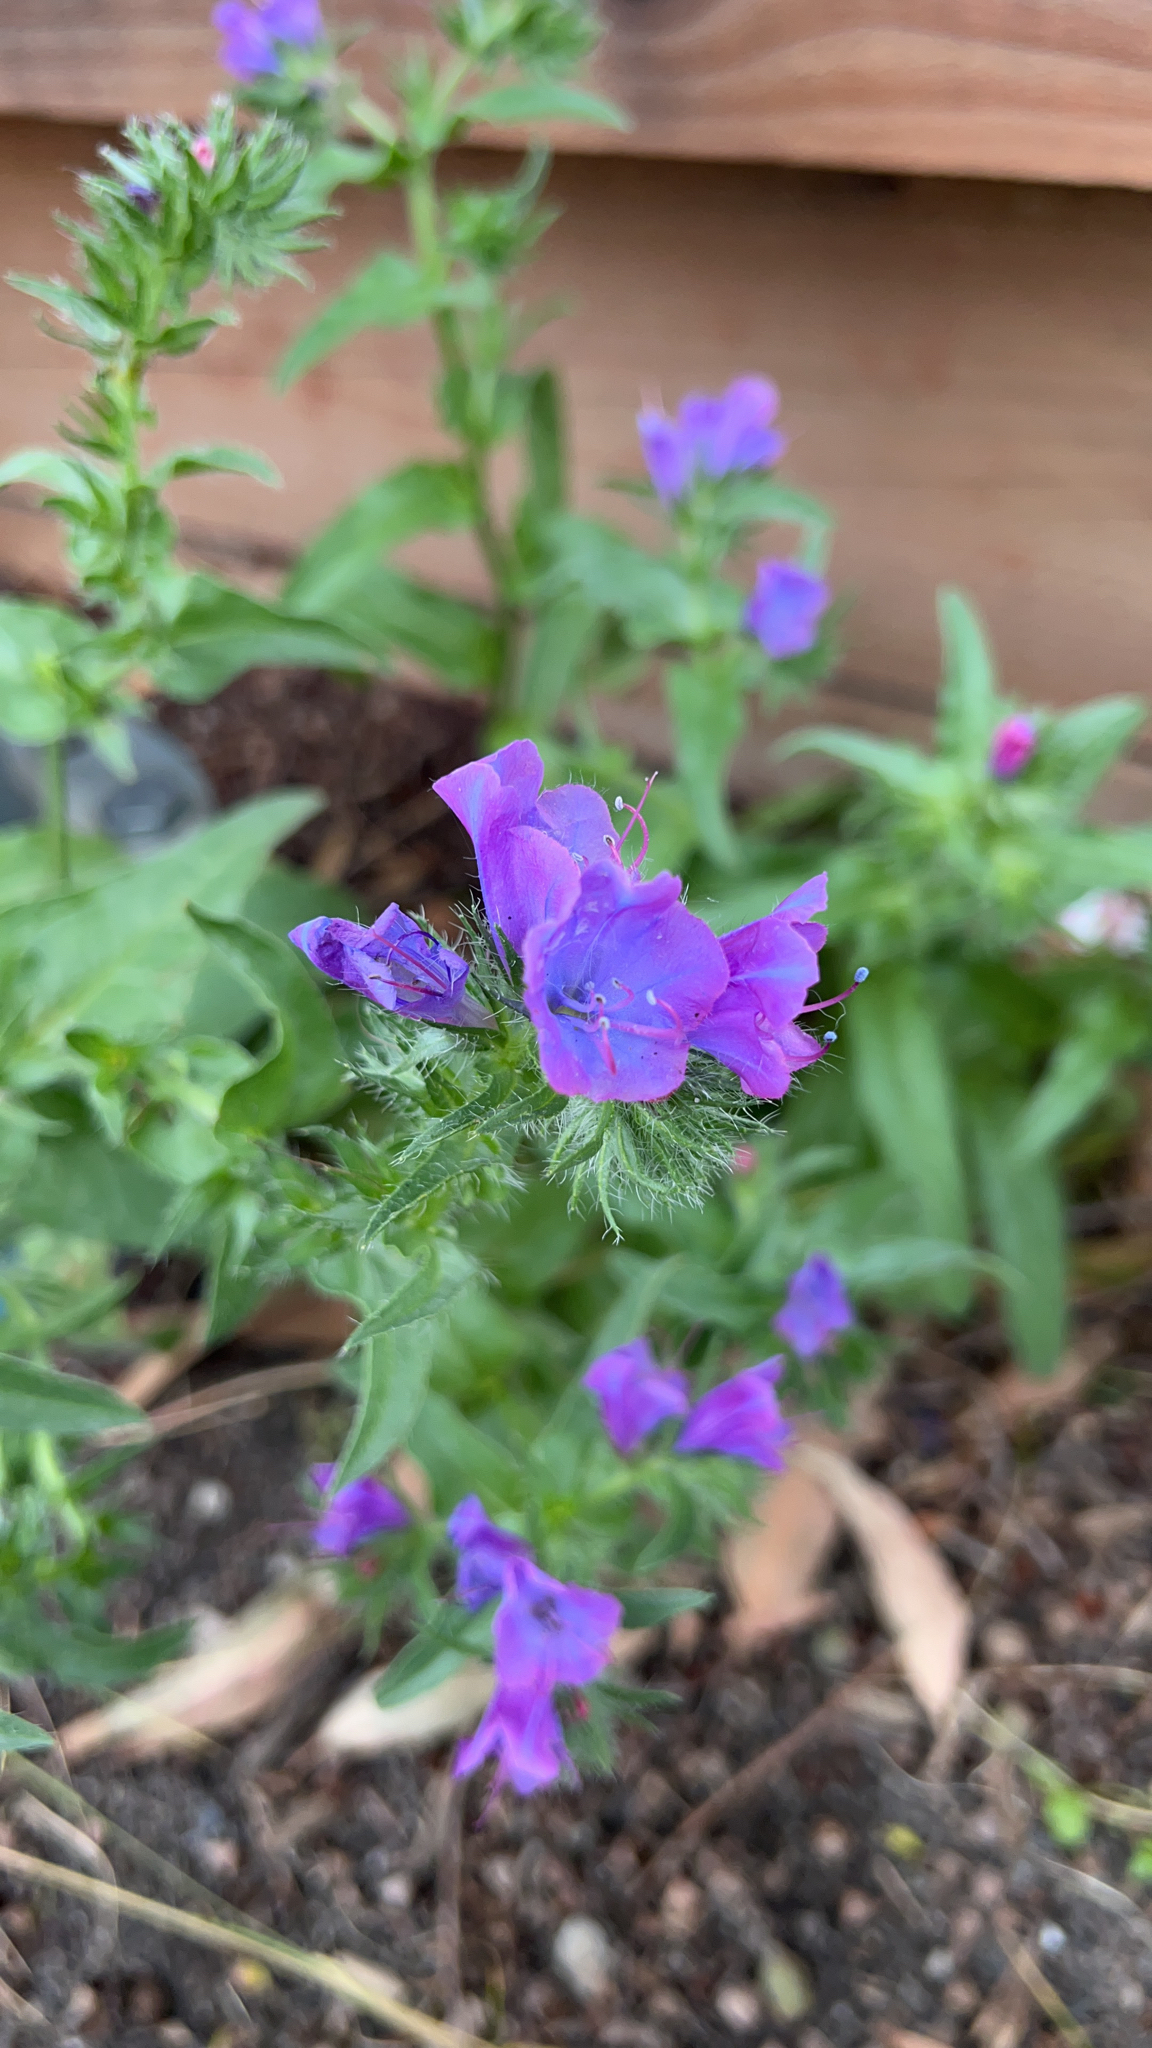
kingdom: Plantae
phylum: Tracheophyta
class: Magnoliopsida
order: Boraginales
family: Boraginaceae
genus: Echium
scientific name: Echium plantagineum
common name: Purple viper's-bugloss
